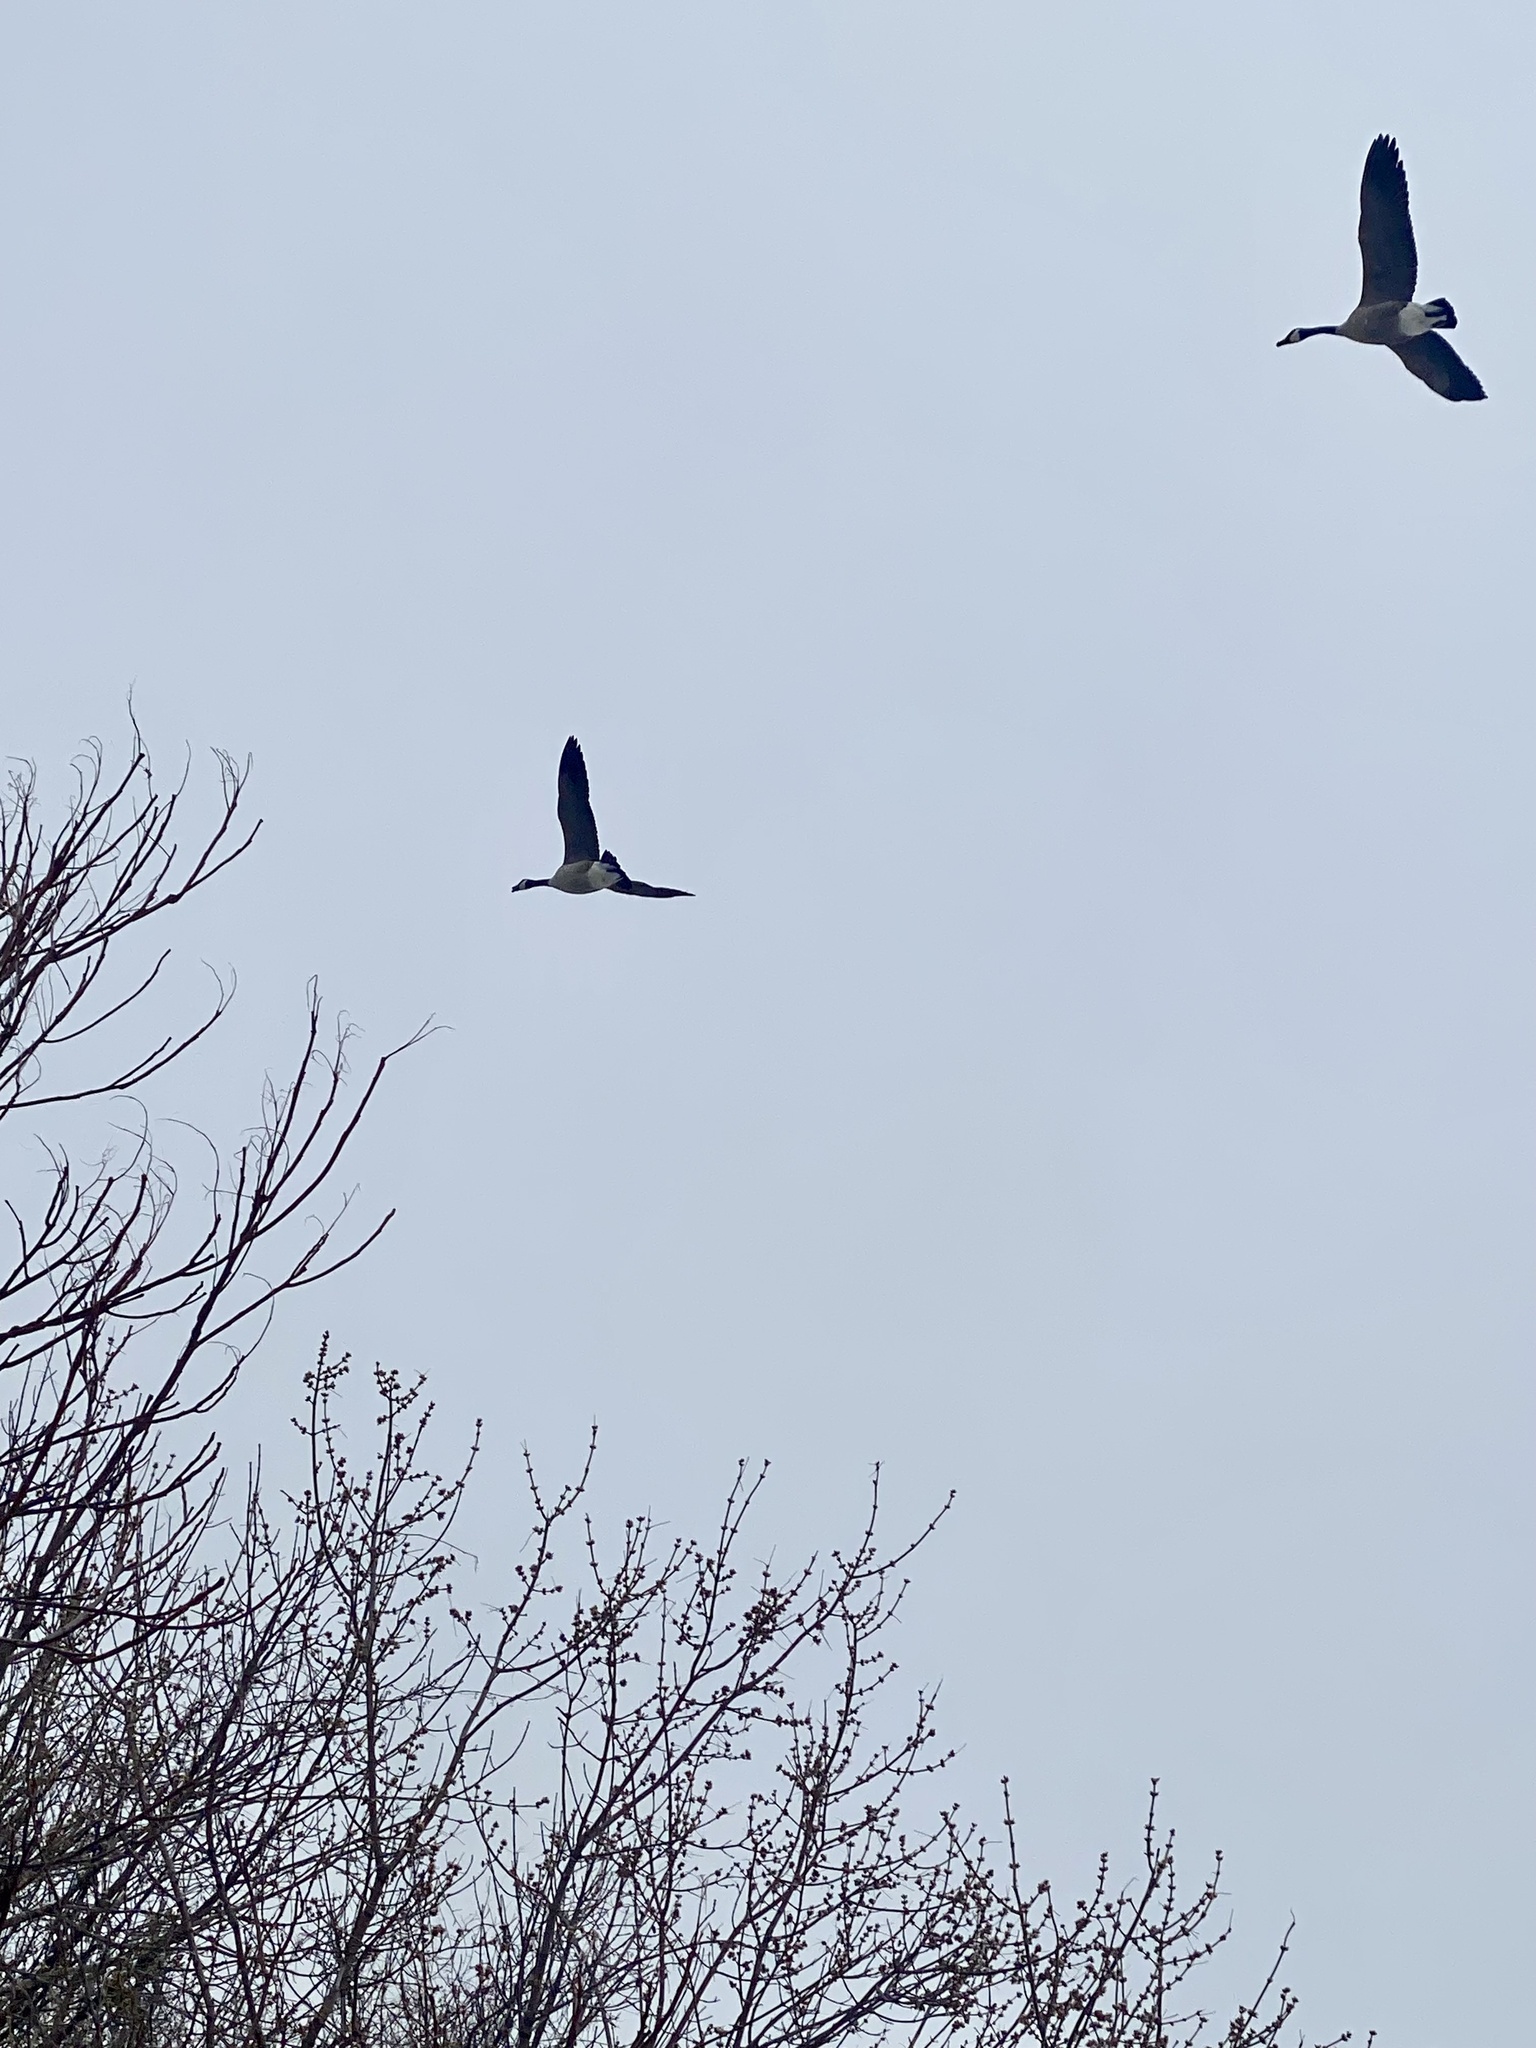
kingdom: Animalia
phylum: Chordata
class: Aves
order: Anseriformes
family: Anatidae
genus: Branta
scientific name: Branta canadensis
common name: Canada goose
